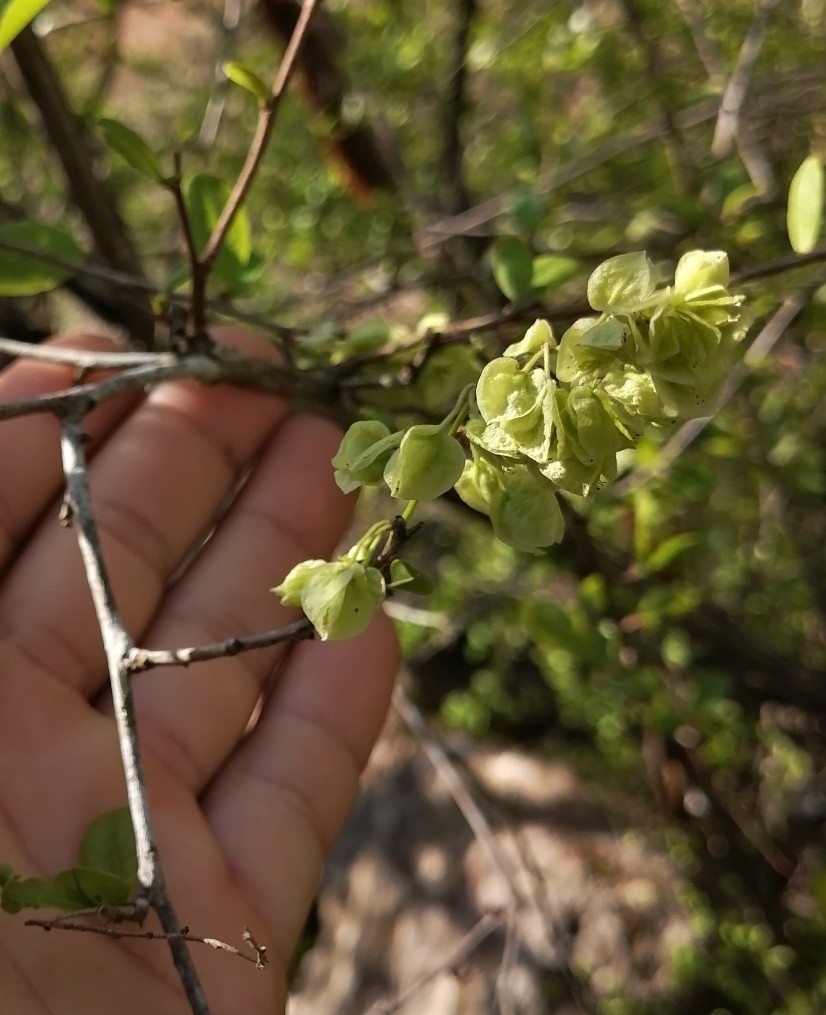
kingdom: Plantae
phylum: Tracheophyta
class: Magnoliopsida
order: Caryophyllales
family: Polygonaceae
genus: Gymnopodium
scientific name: Gymnopodium floribundum
